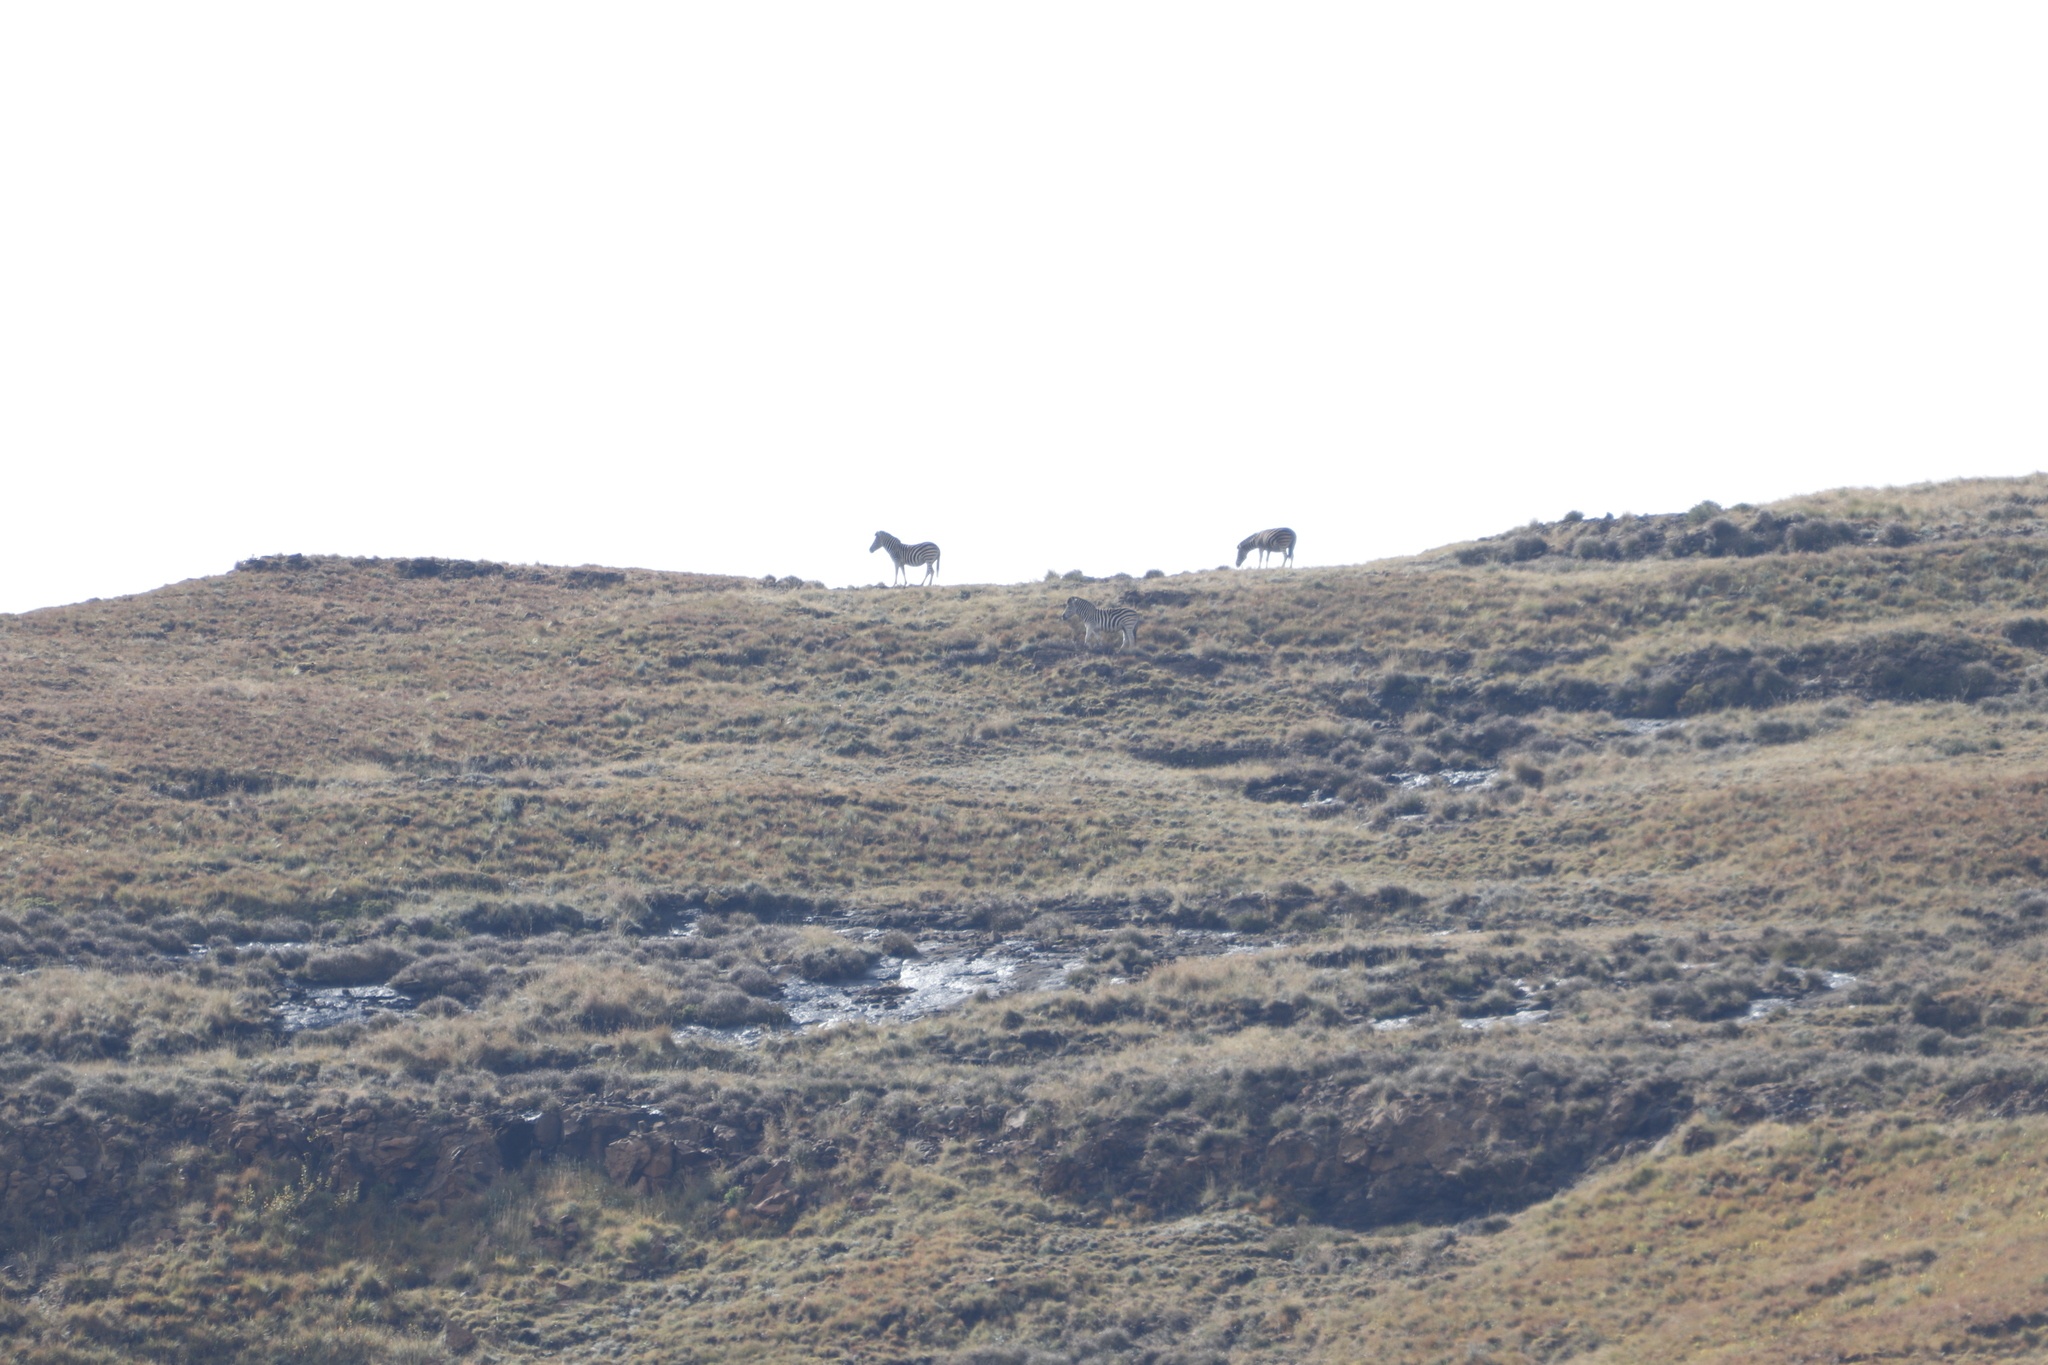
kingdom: Animalia
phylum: Chordata
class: Mammalia
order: Perissodactyla
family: Equidae
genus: Equus
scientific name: Equus quagga
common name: Plains zebra
